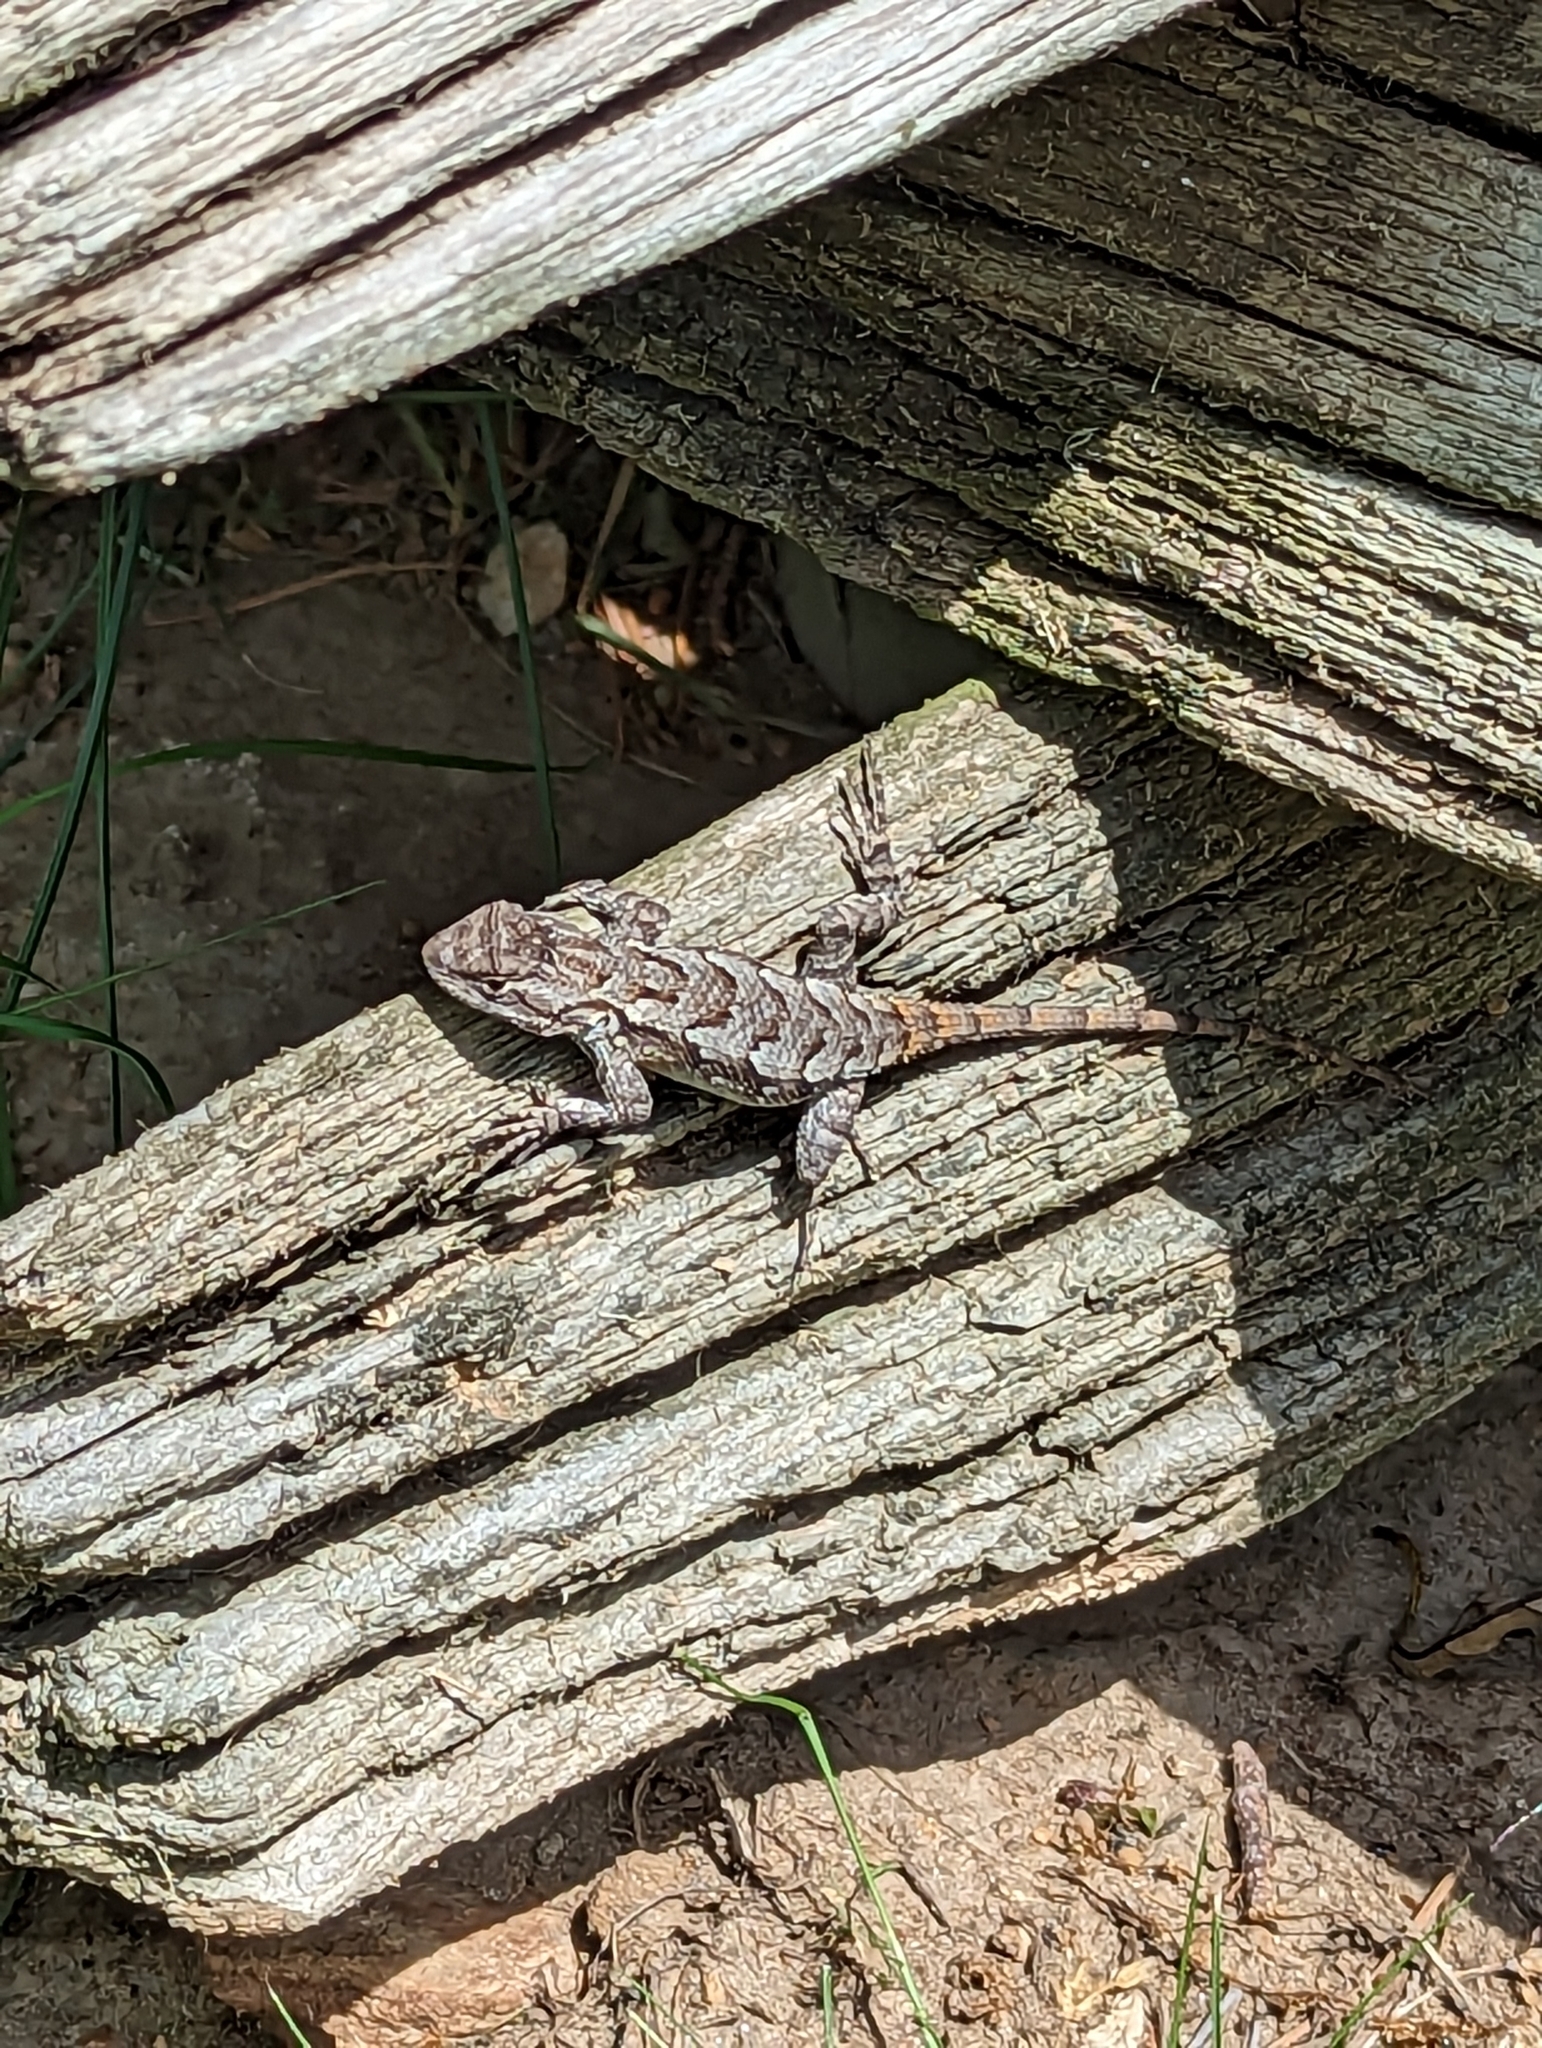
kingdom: Animalia
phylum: Chordata
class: Squamata
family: Phrynosomatidae
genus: Sceloporus
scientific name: Sceloporus undulatus
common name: Eastern fence lizard
